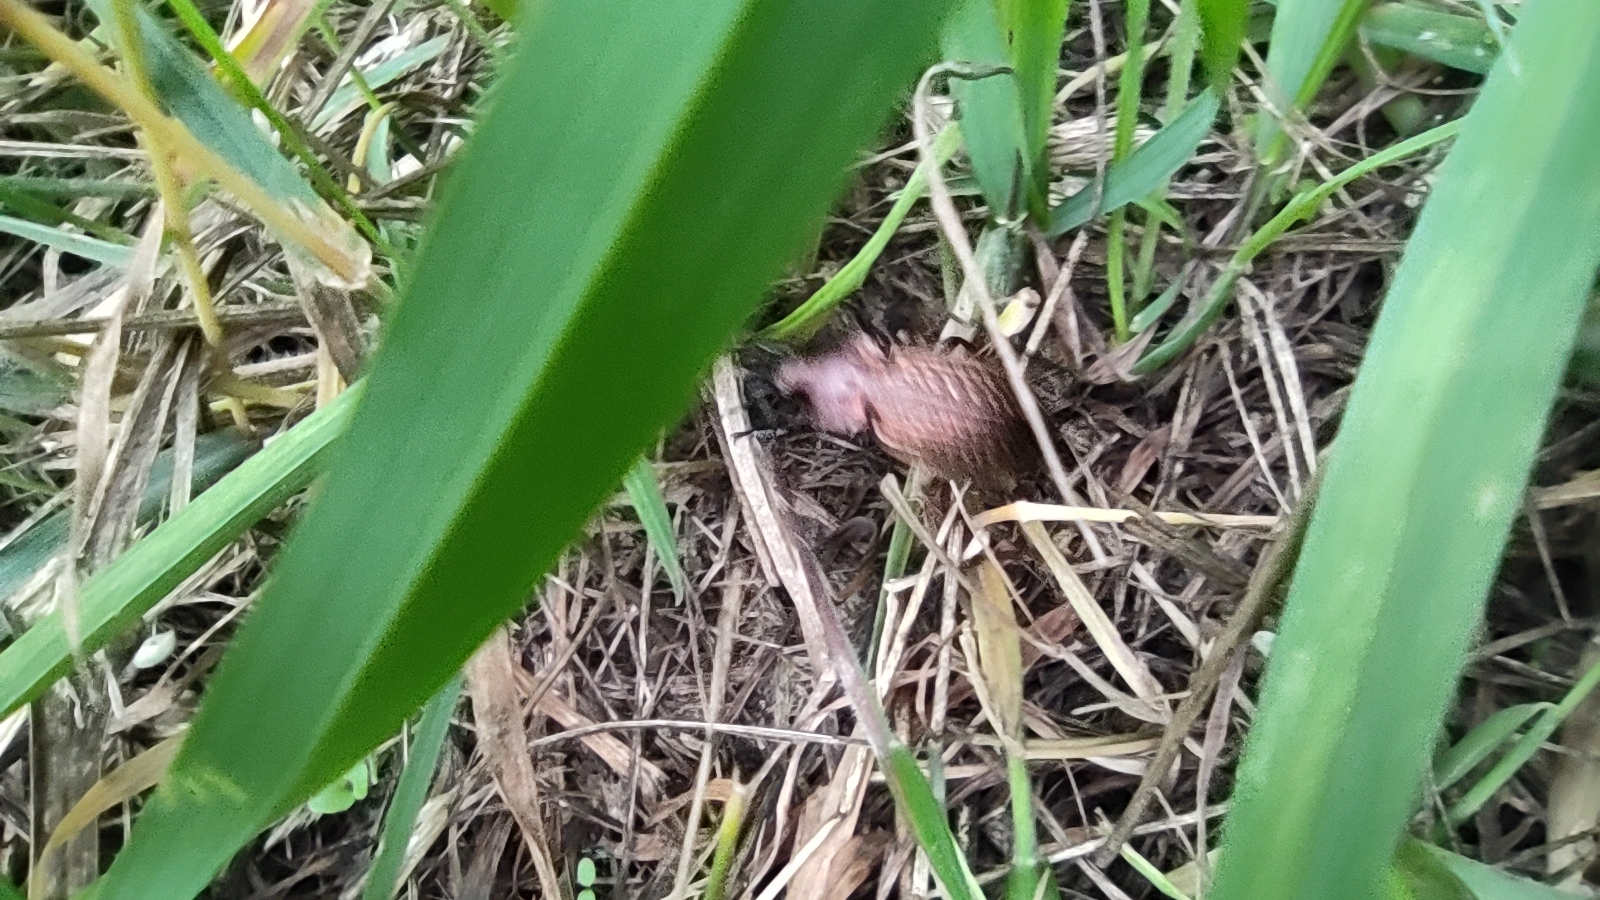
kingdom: Animalia
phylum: Arthropoda
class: Insecta
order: Coleoptera
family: Carabidae
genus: Carabus
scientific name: Carabus
